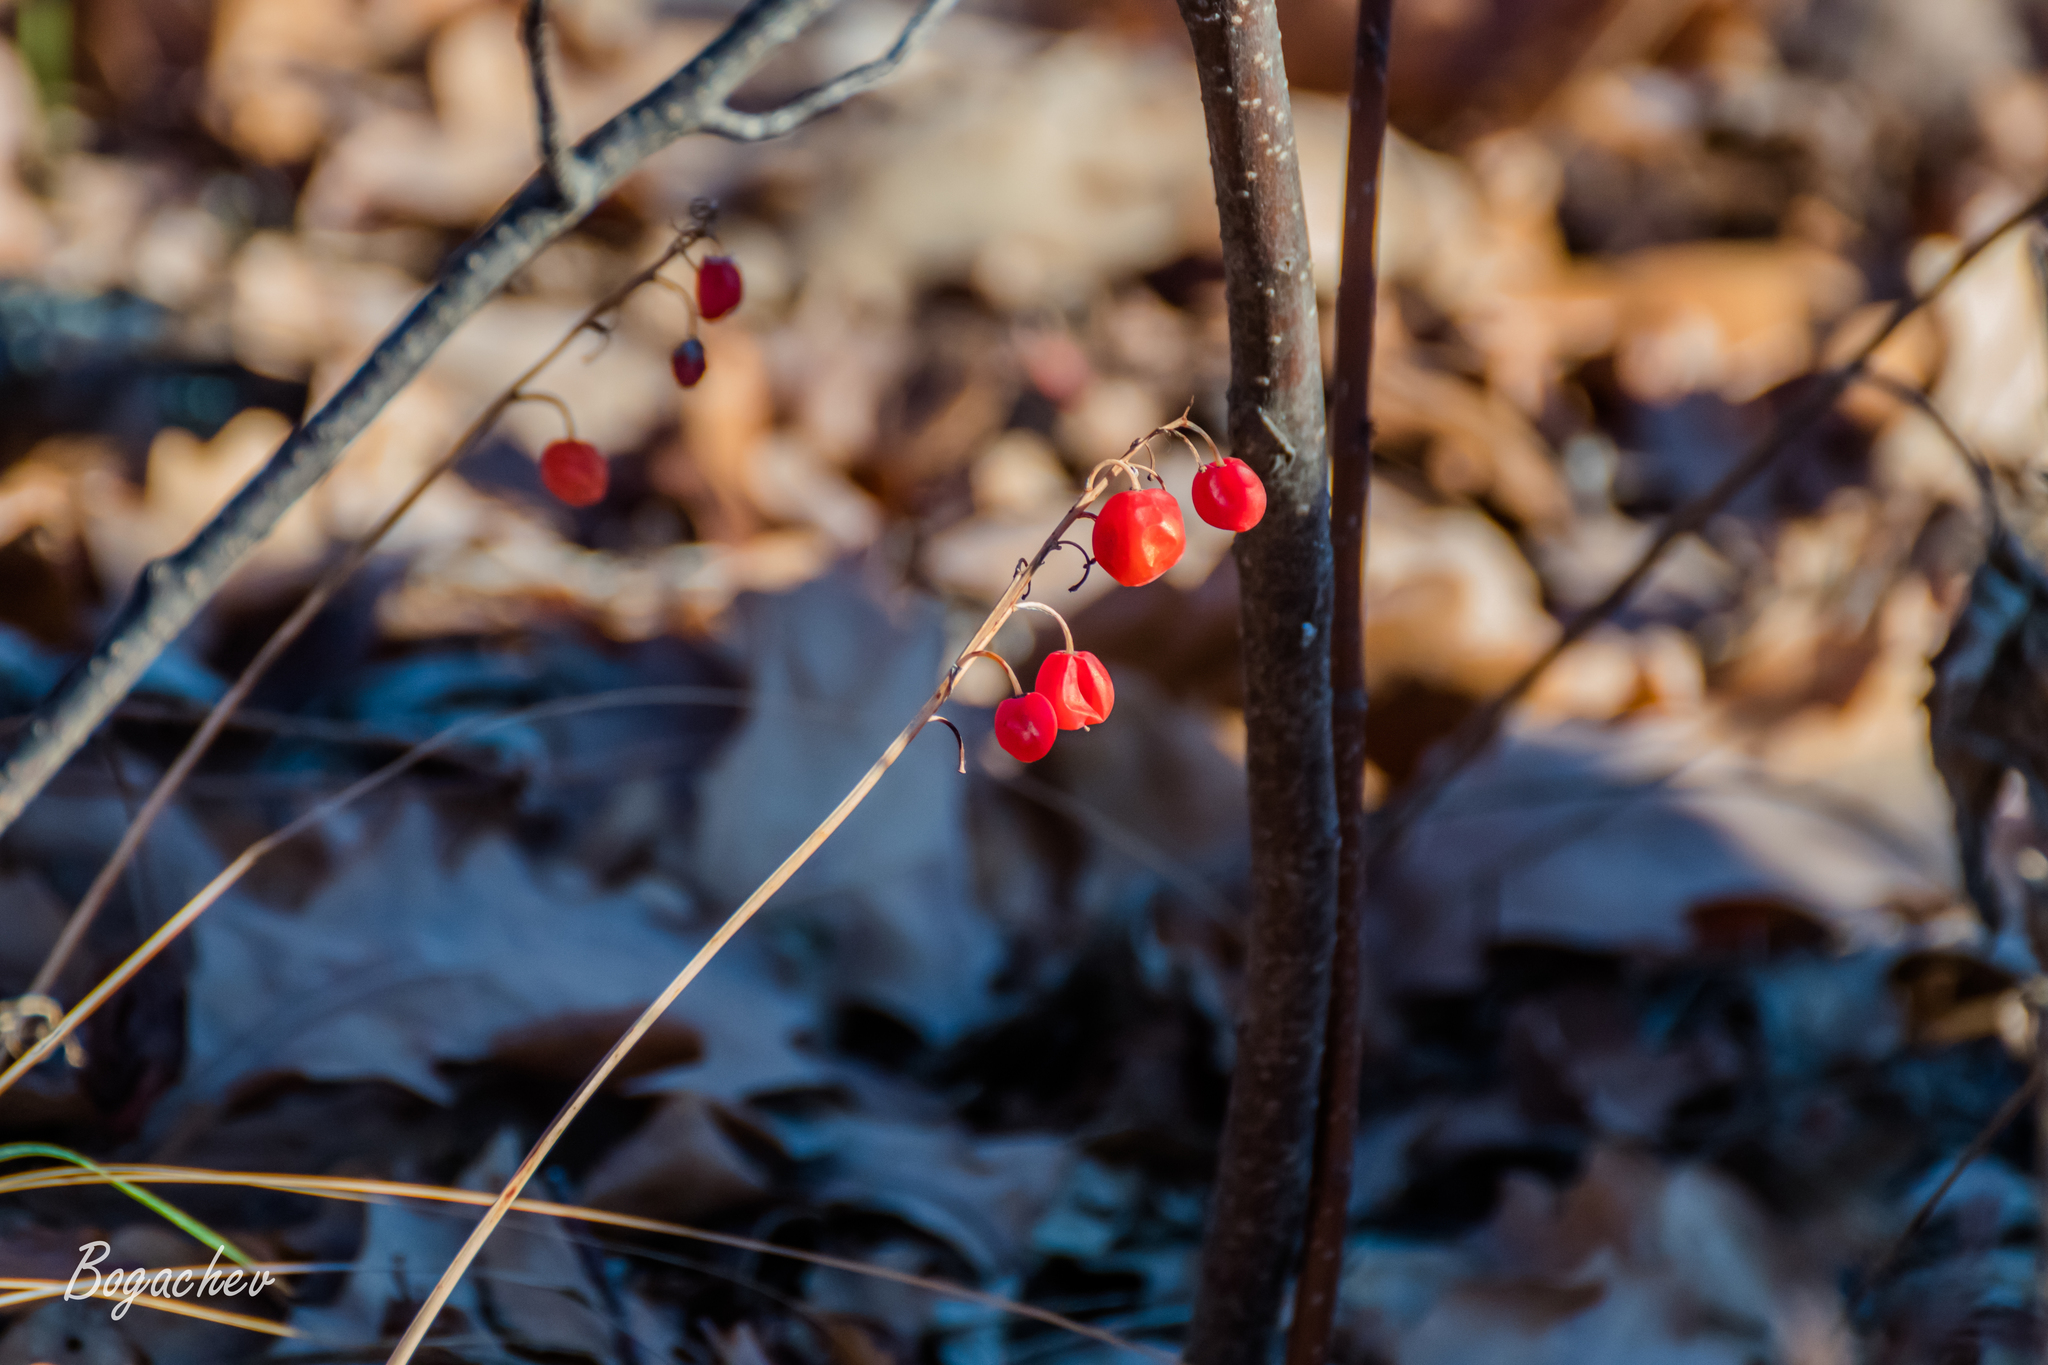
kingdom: Plantae
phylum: Tracheophyta
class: Liliopsida
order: Asparagales
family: Asparagaceae
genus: Convallaria
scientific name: Convallaria majalis
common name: Lily-of-the-valley
